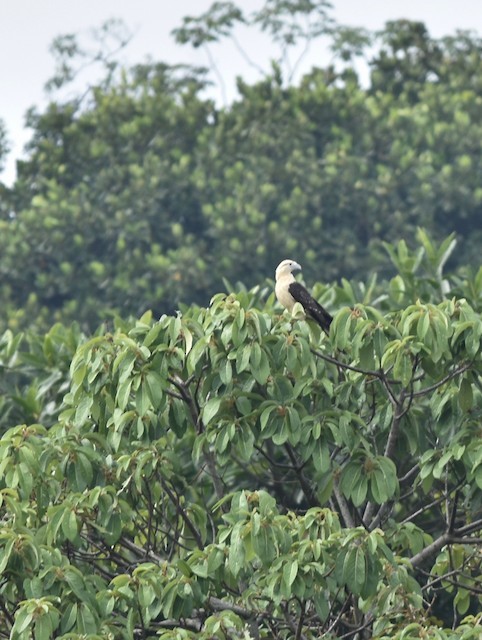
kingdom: Animalia
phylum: Chordata
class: Aves
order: Falconiformes
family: Falconidae
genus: Daptrius
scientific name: Daptrius
